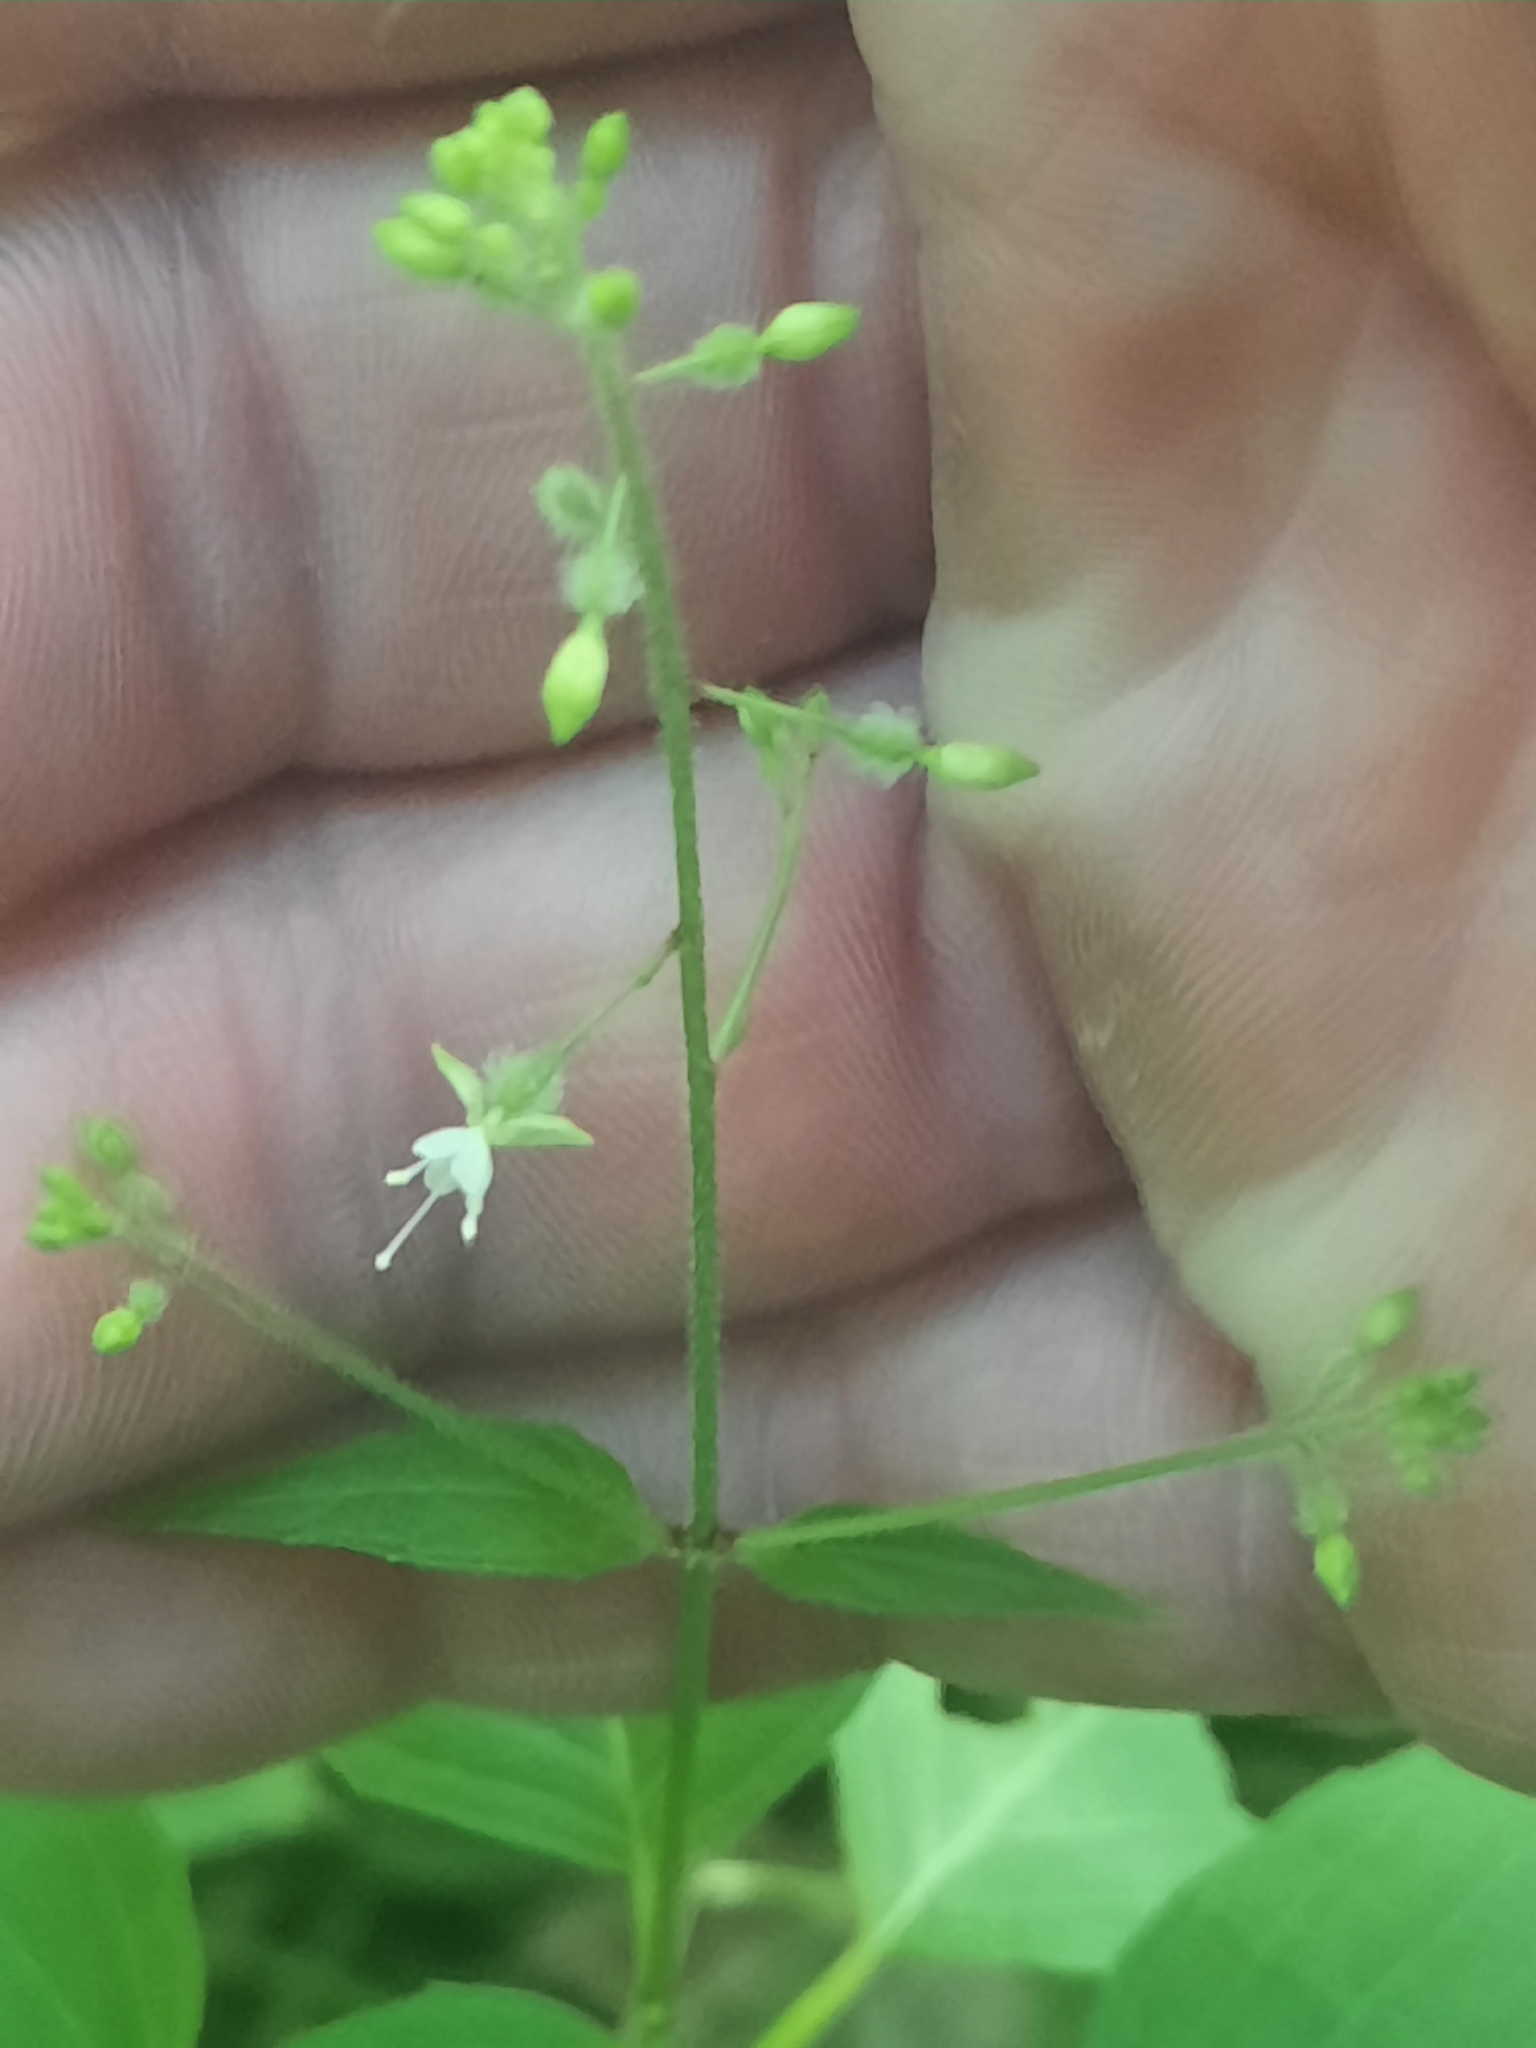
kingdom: Plantae
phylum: Tracheophyta
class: Magnoliopsida
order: Myrtales
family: Onagraceae
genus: Circaea
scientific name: Circaea canadensis
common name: Broad-leaved enchanter's nightshade
